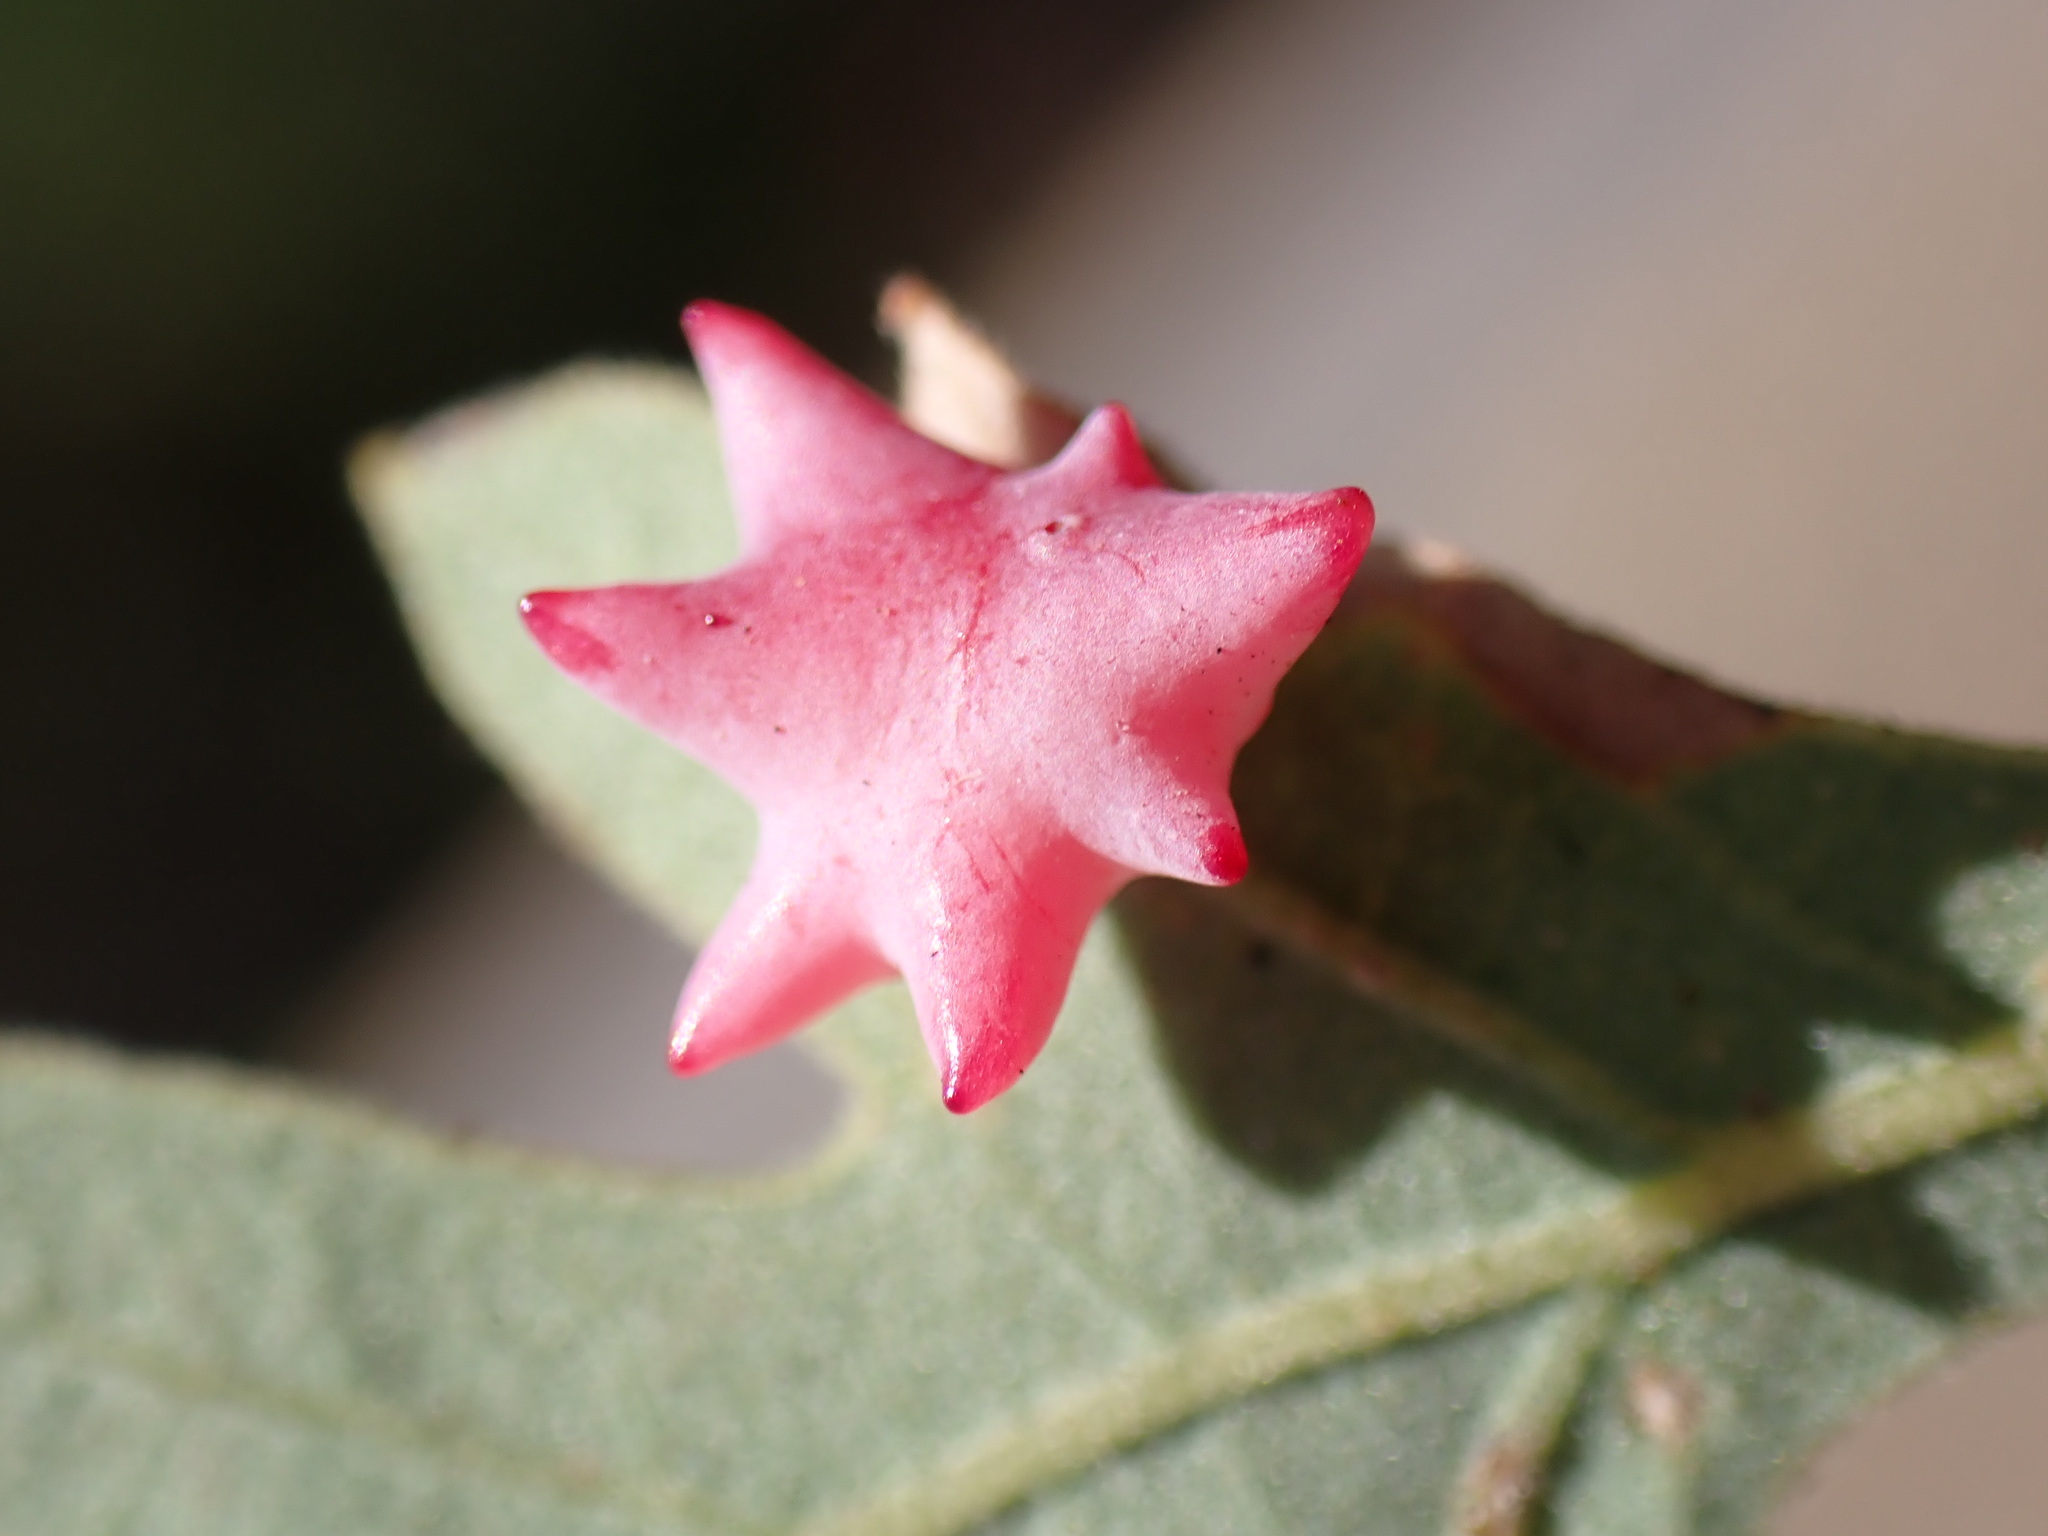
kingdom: Animalia
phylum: Arthropoda
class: Insecta
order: Hymenoptera
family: Cynipidae
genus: Cynips
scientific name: Cynips douglasi
